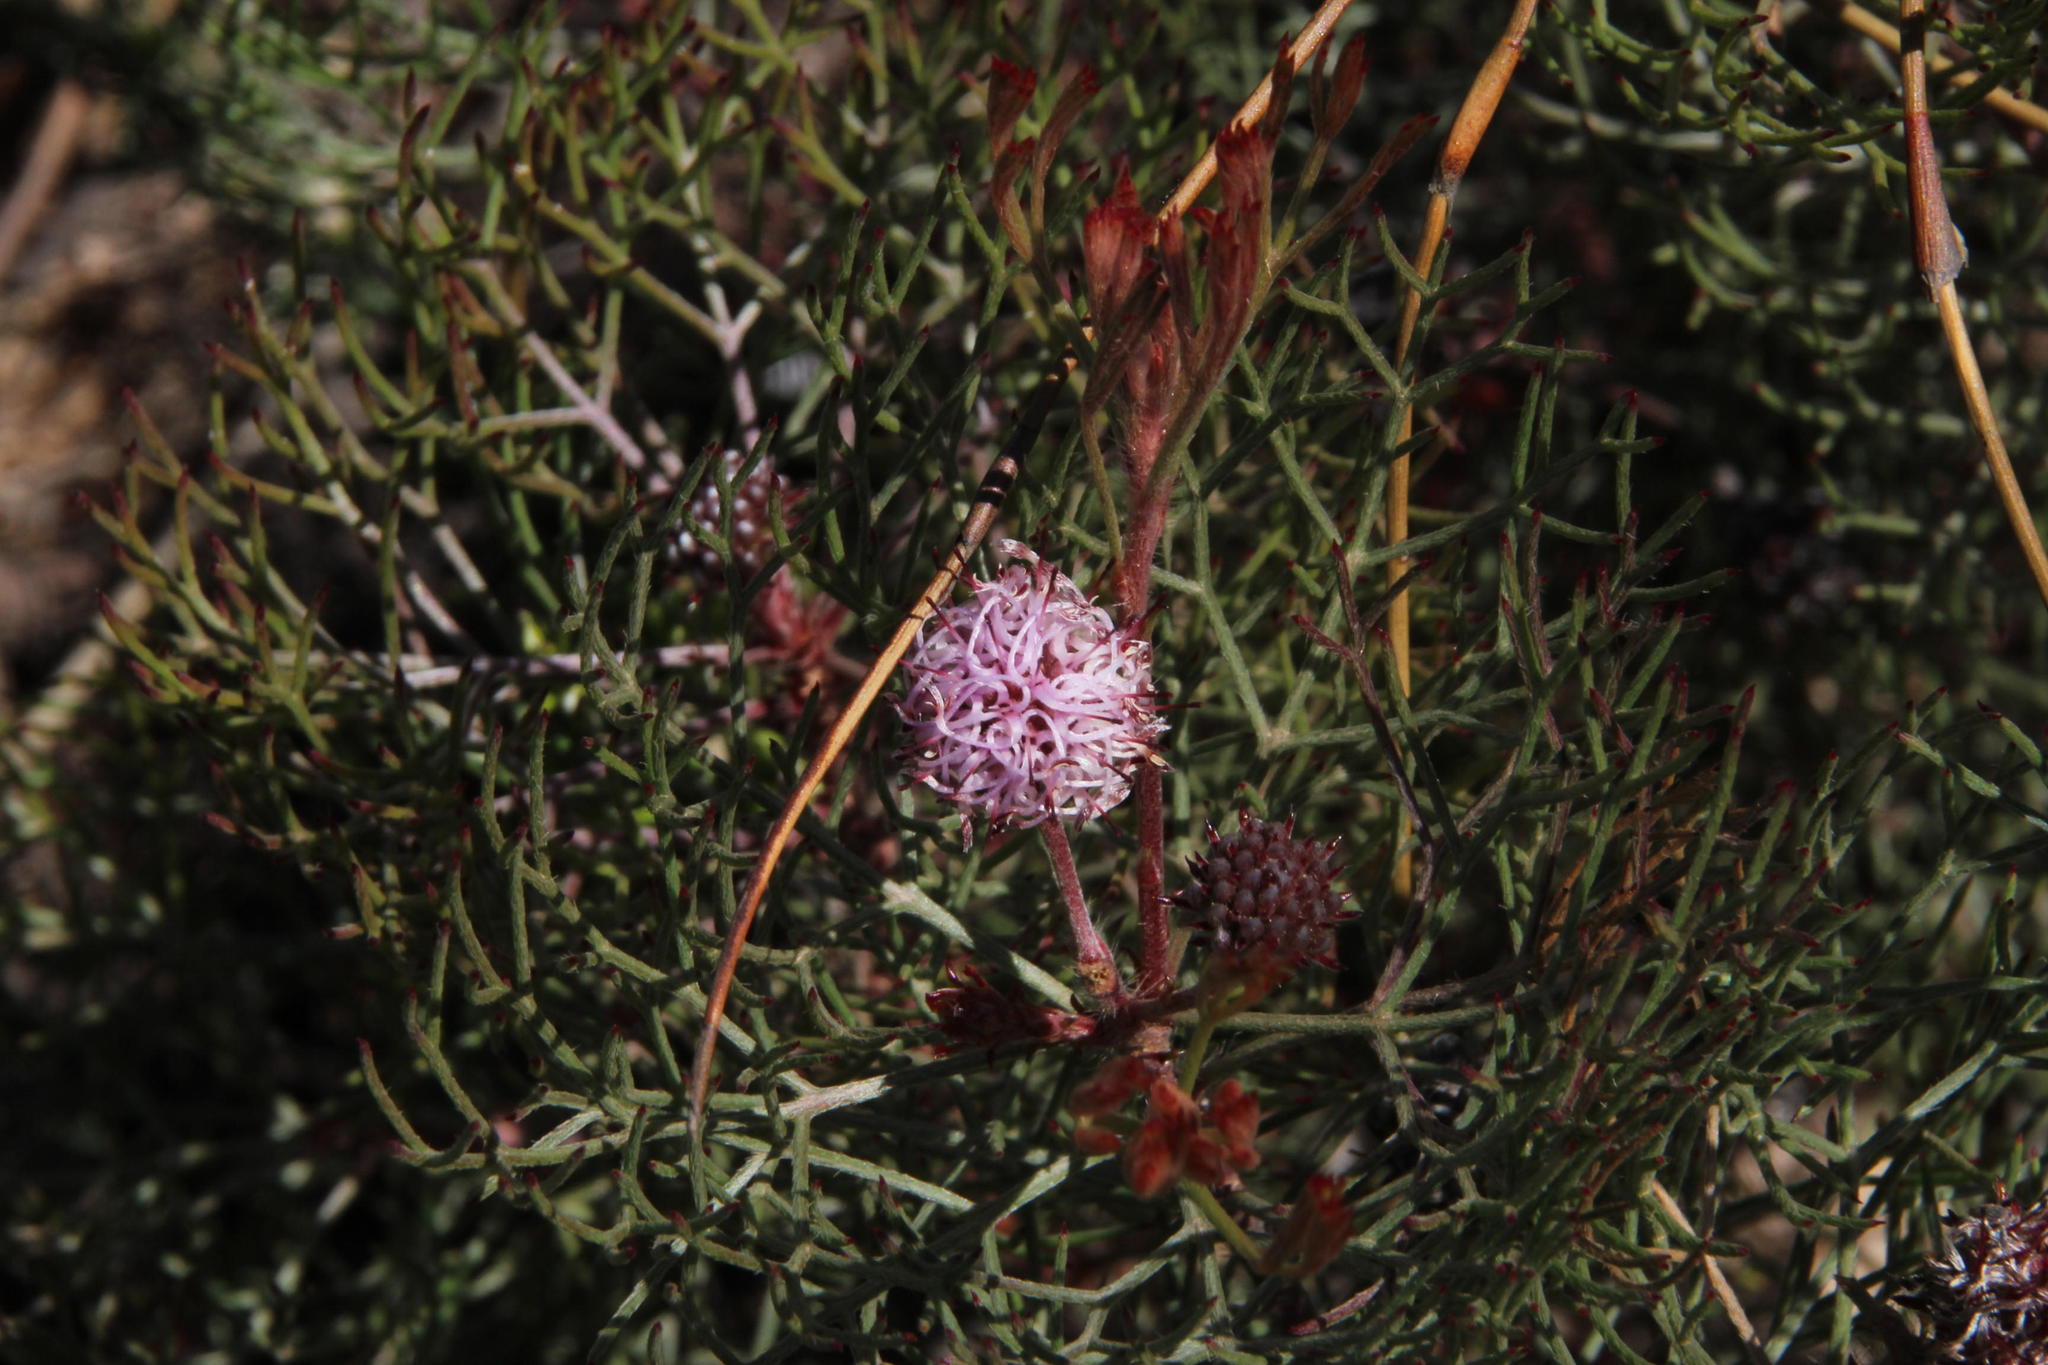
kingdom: Plantae
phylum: Tracheophyta
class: Magnoliopsida
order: Proteales
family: Proteaceae
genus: Serruria
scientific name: Serruria fasciflora
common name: Common pin spiderhead
